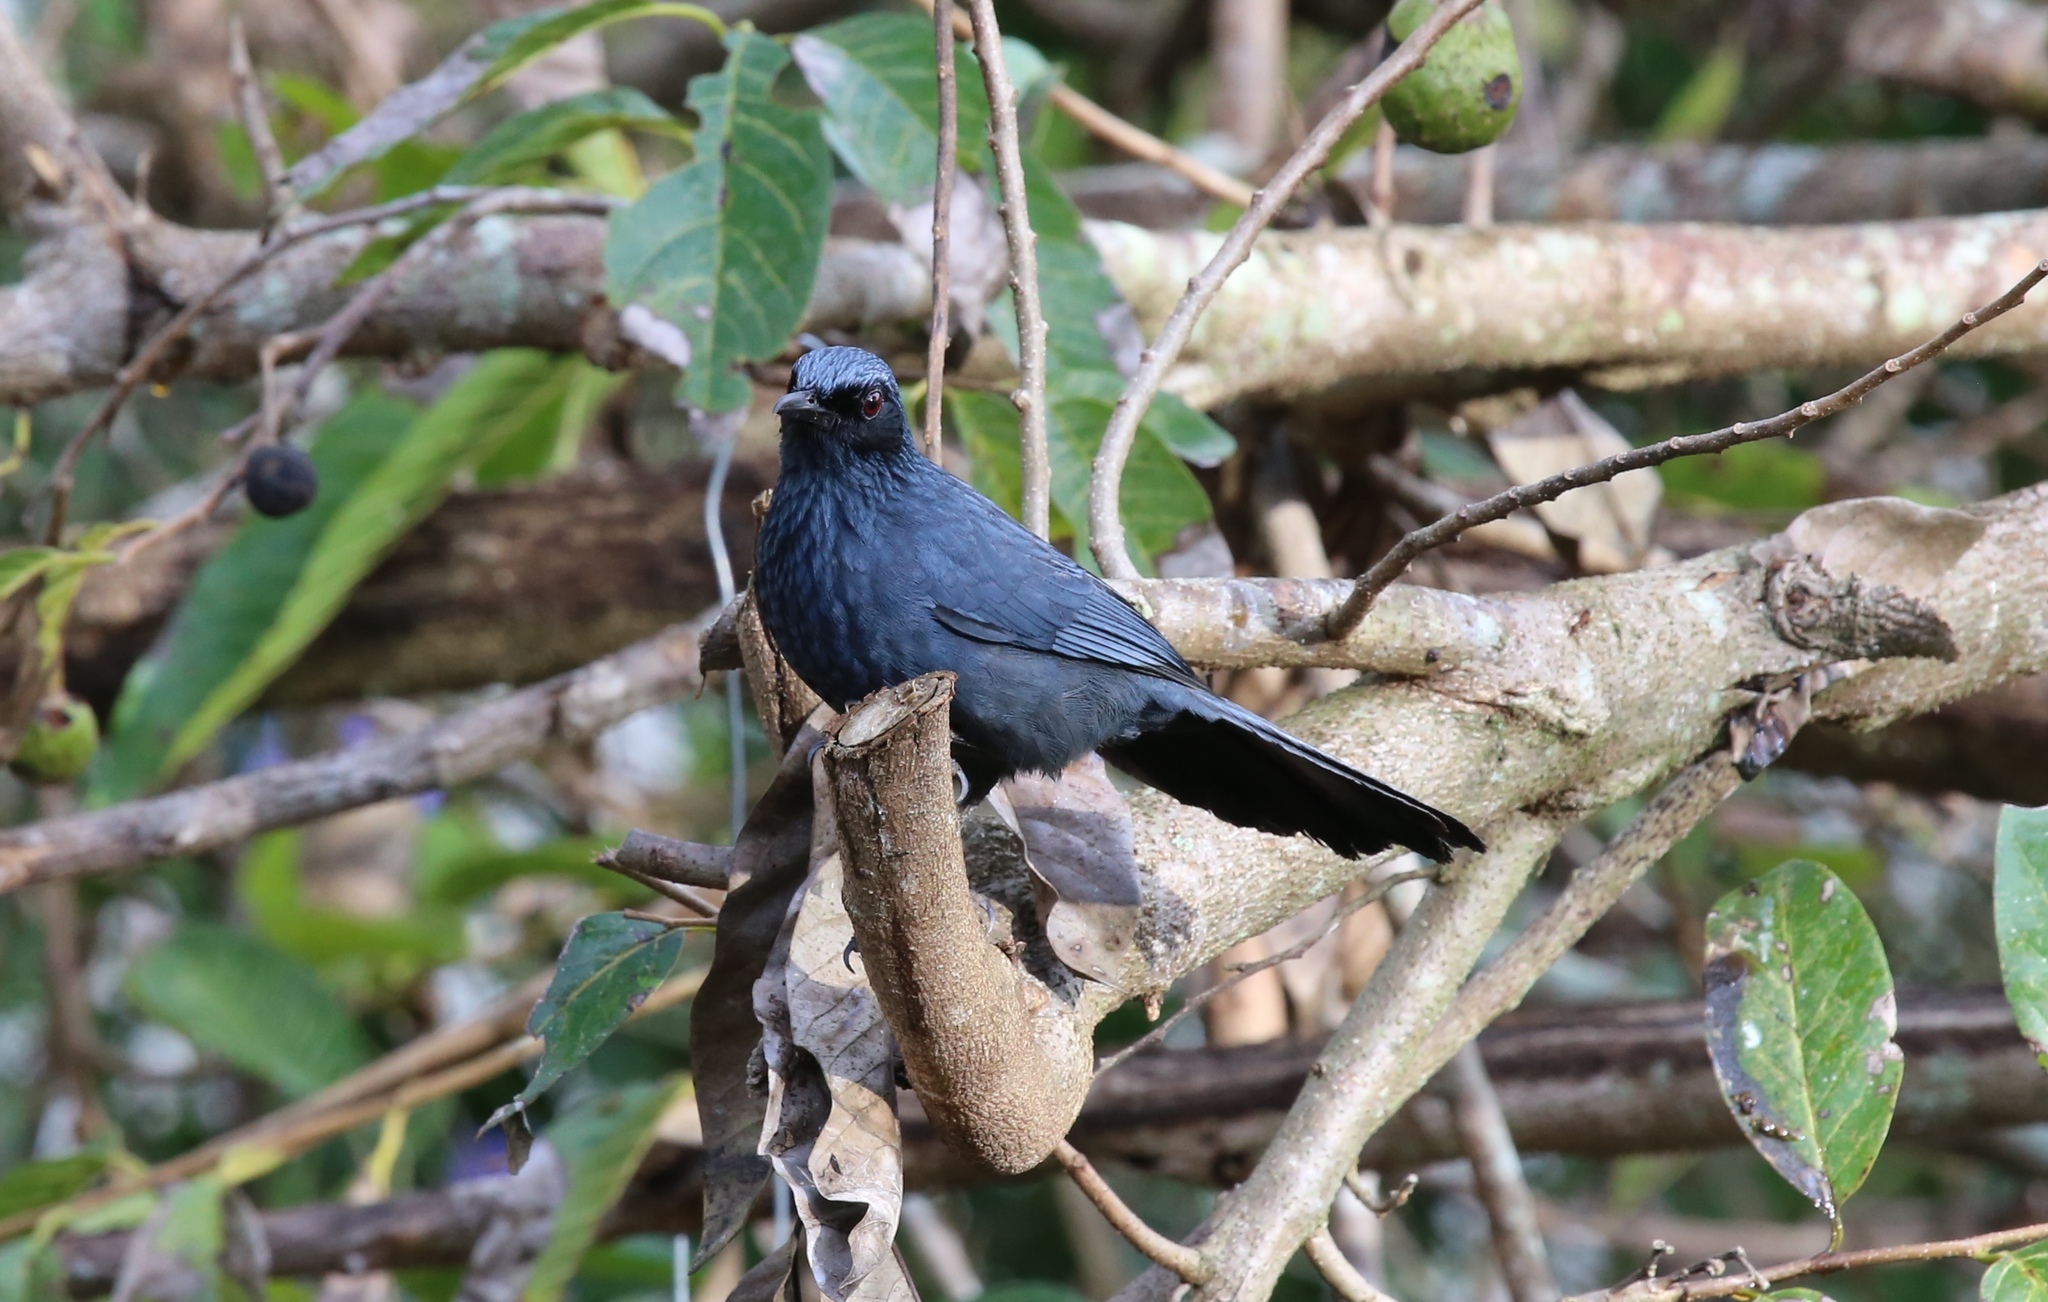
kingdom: Animalia
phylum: Chordata
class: Aves
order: Passeriformes
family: Mimidae
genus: Melanotis
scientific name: Melanotis caerulescens
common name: Blue mockingbird
